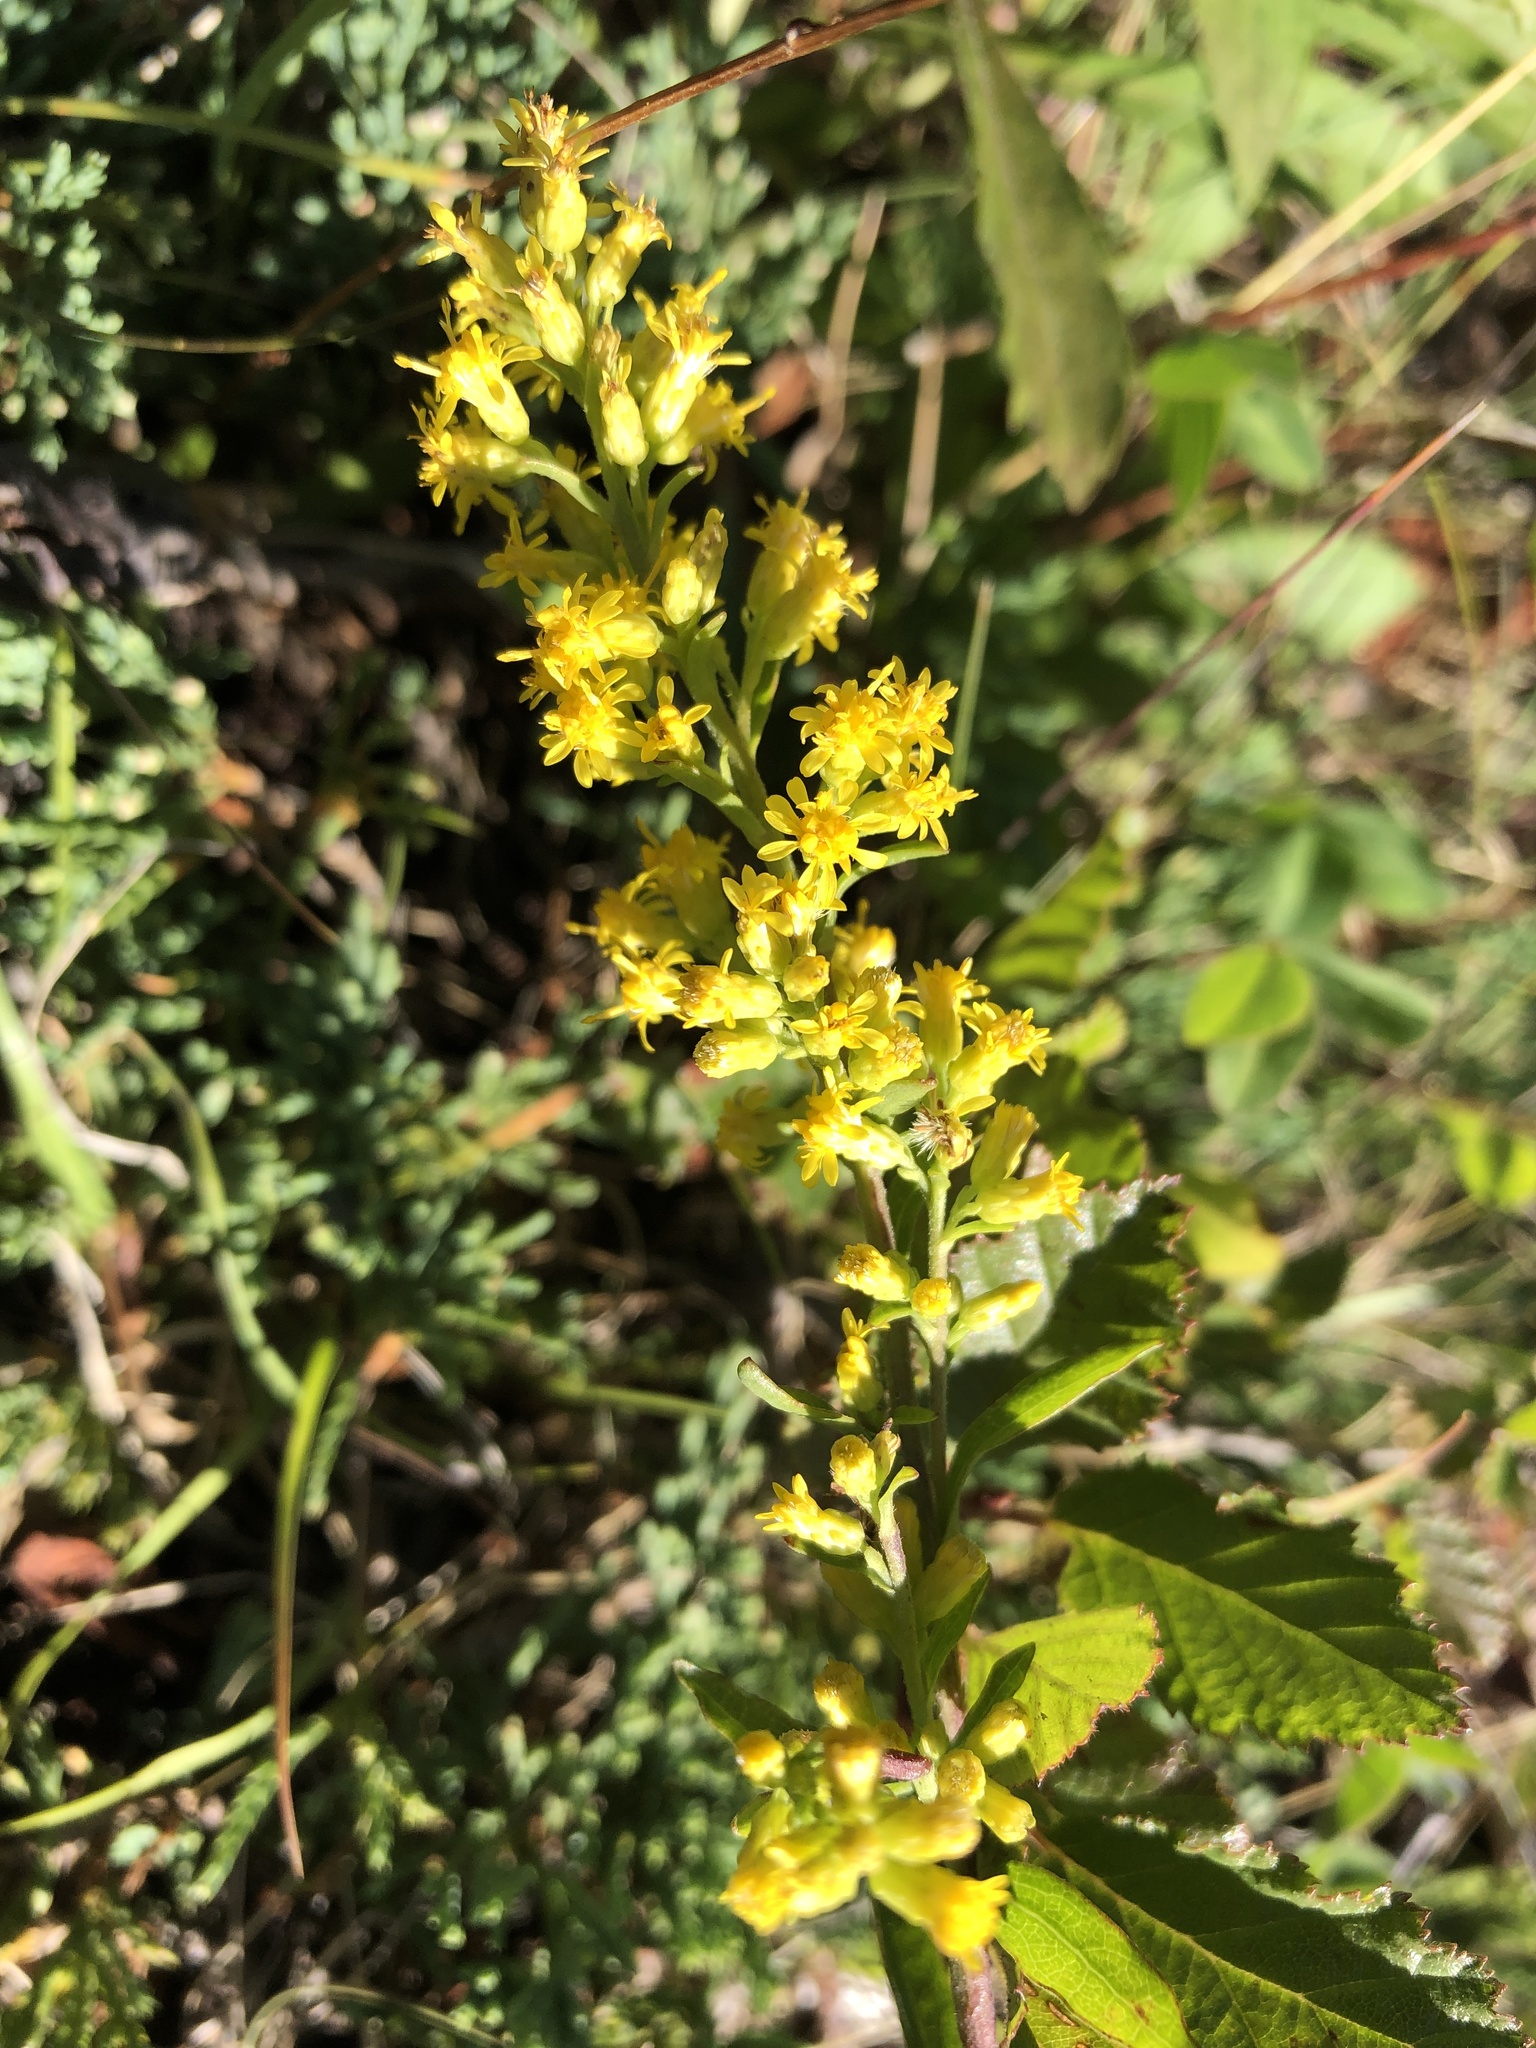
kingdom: Plantae
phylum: Tracheophyta
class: Magnoliopsida
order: Asterales
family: Asteraceae
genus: Solidago
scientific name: Solidago hispida
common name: Hairy goldenrod
